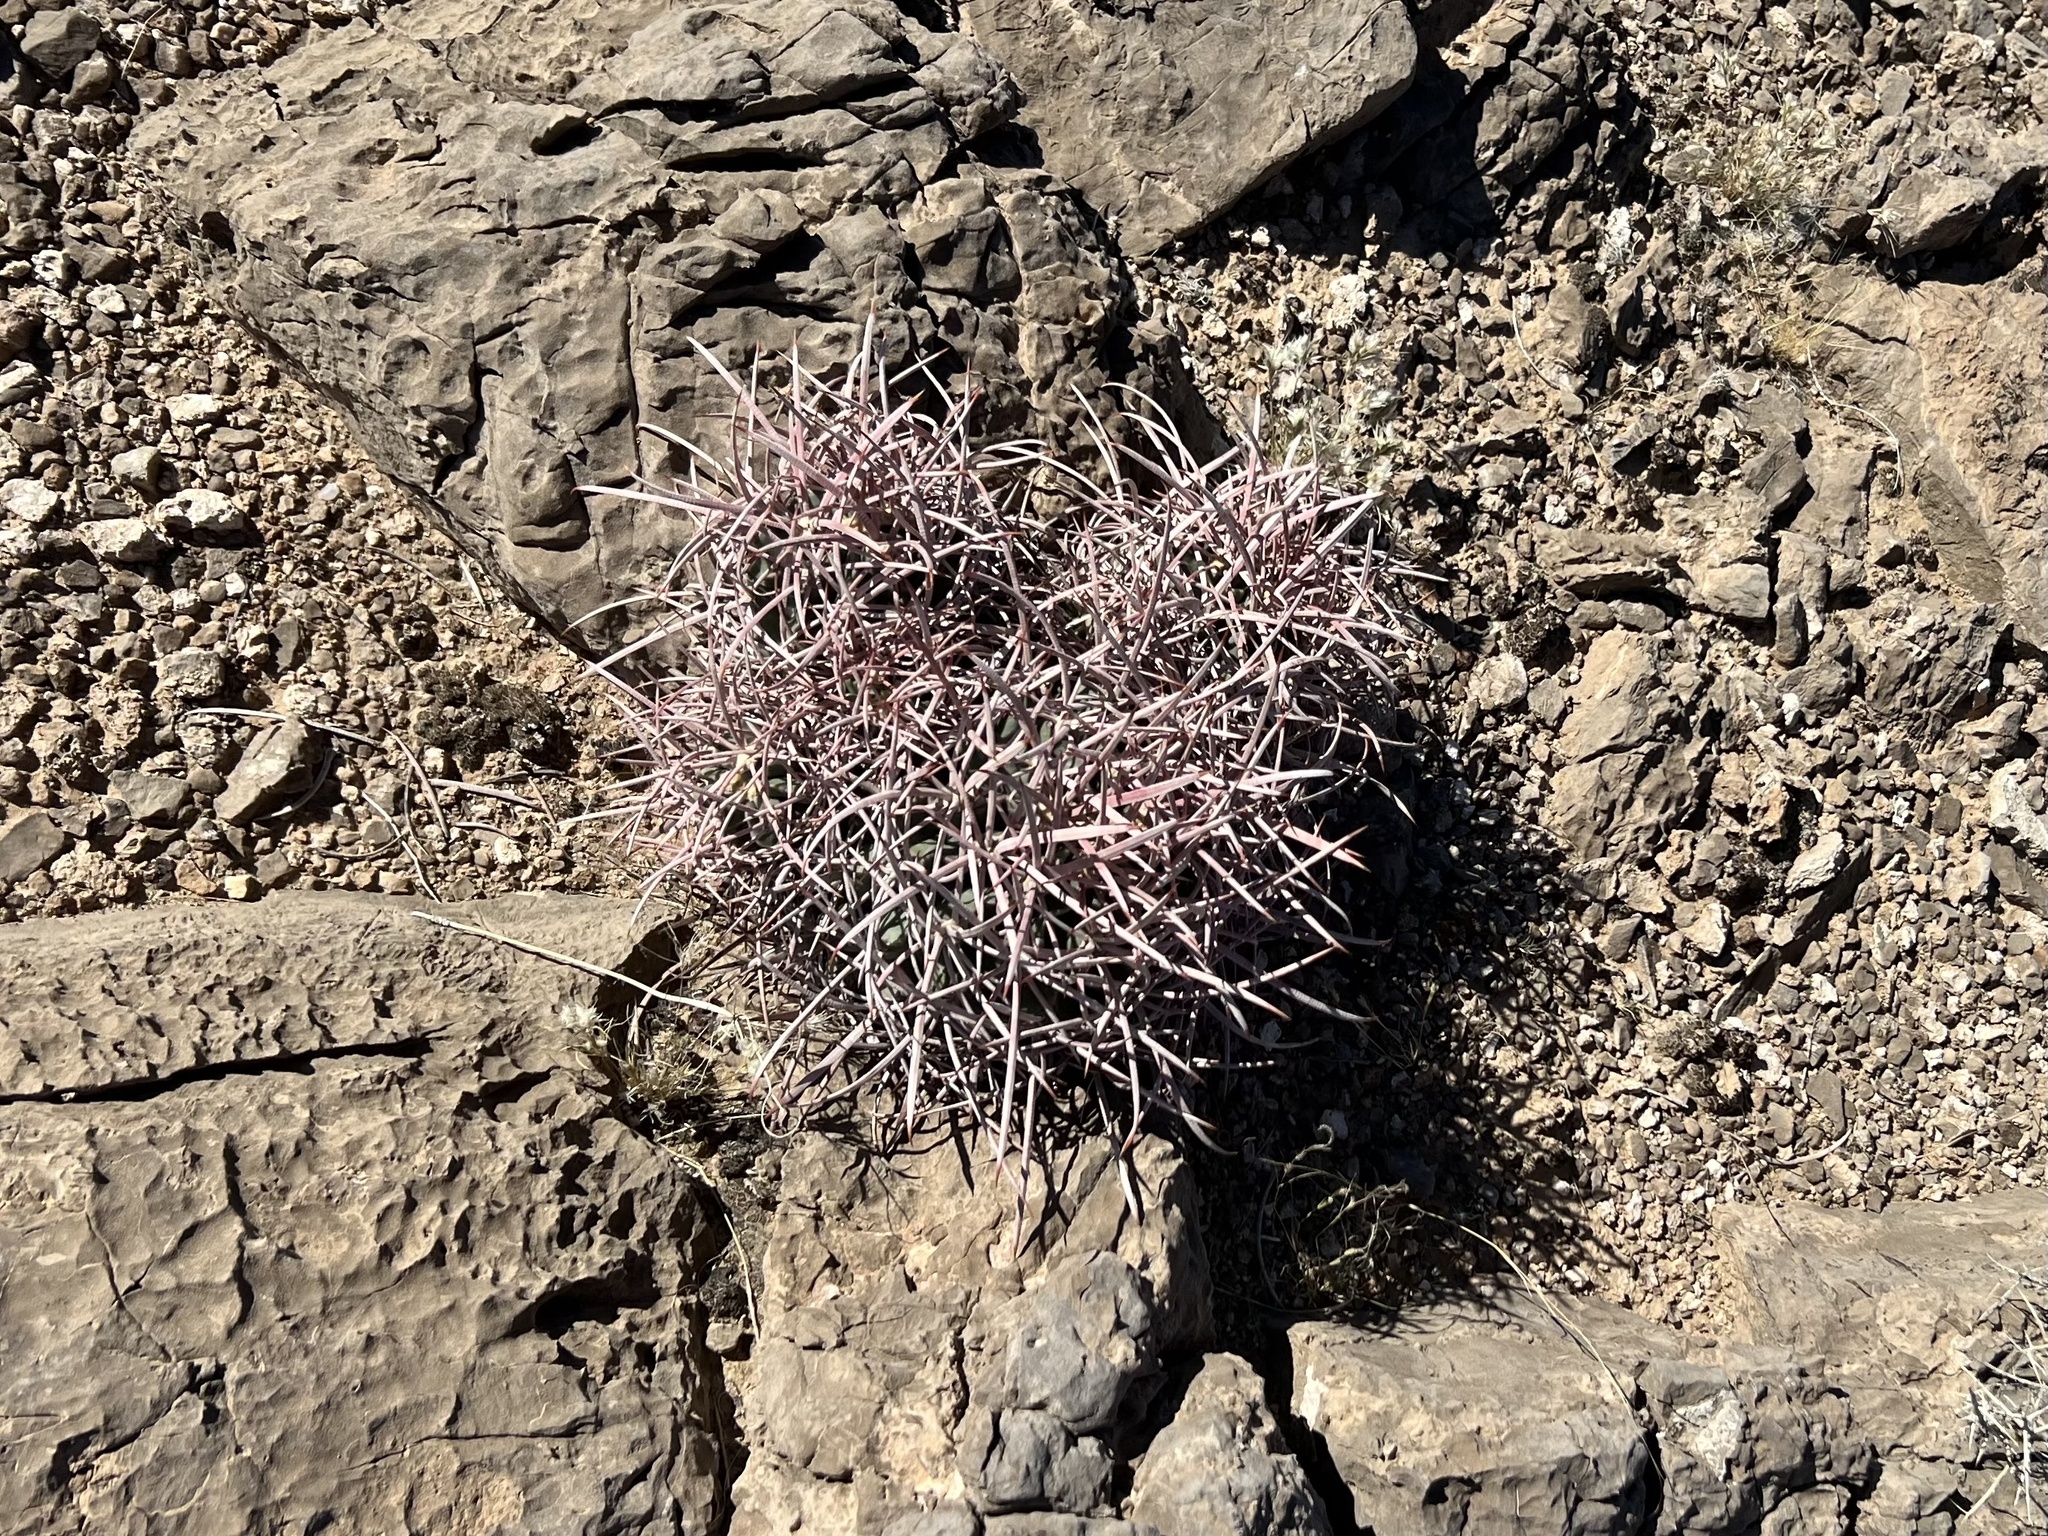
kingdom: Plantae
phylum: Tracheophyta
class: Magnoliopsida
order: Caryophyllales
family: Cactaceae
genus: Echinocactus
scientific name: Echinocactus polycephalus
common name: Cottontop cactus
